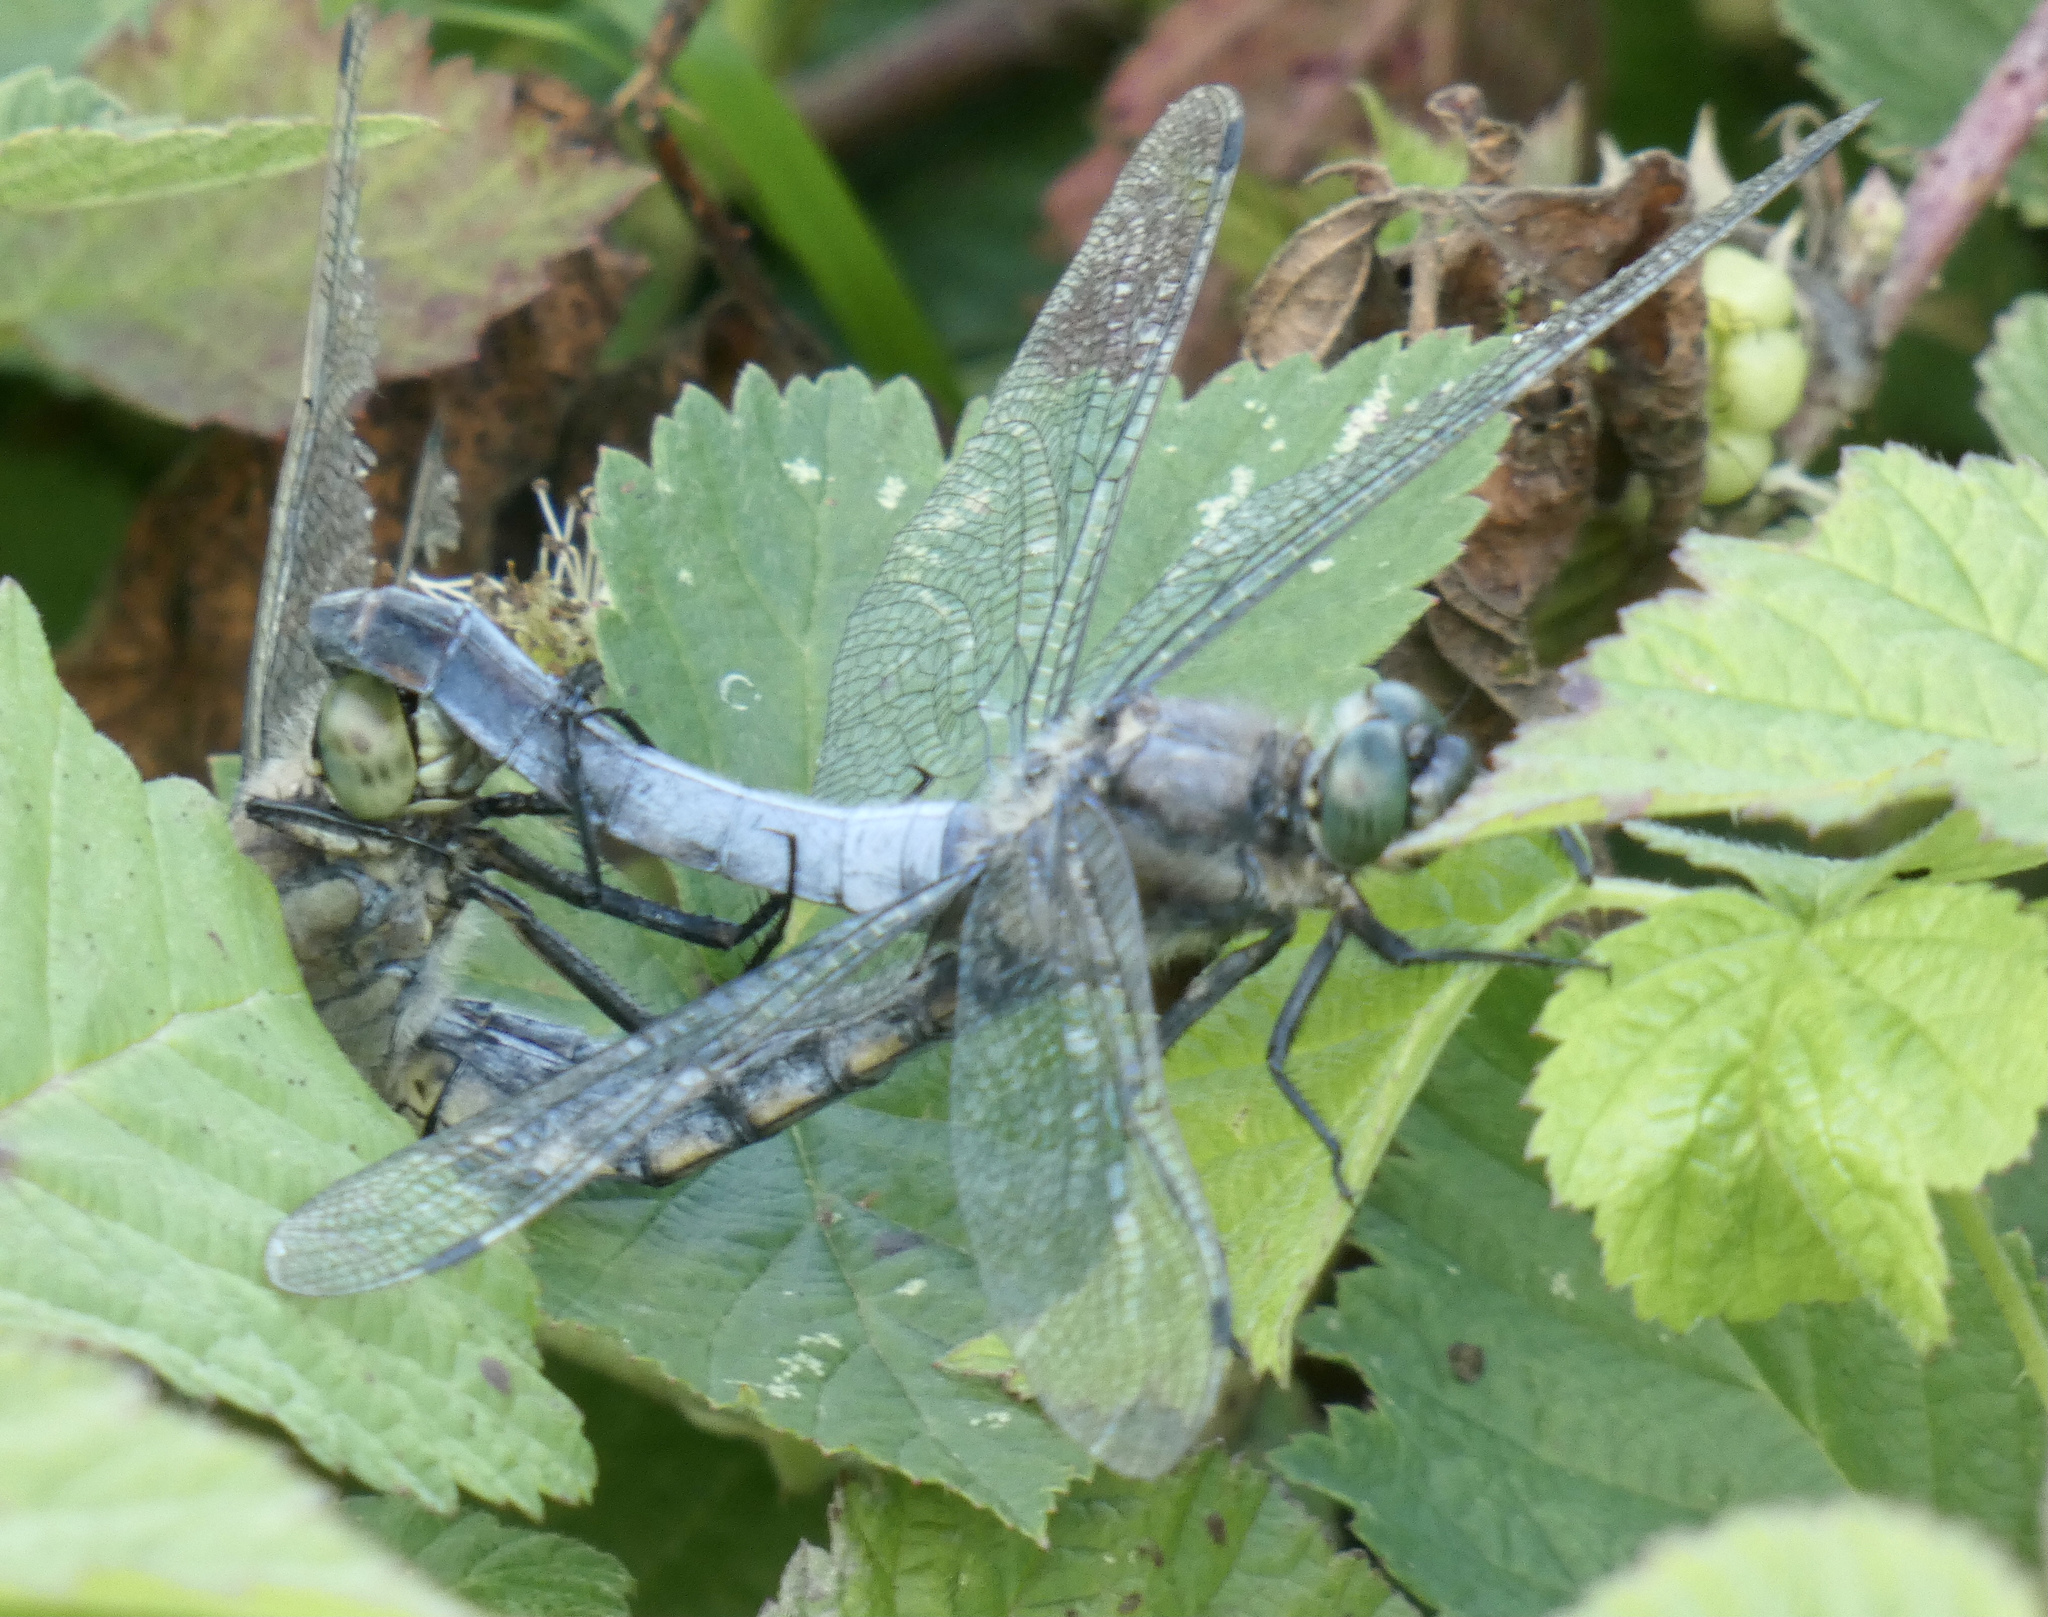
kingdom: Animalia
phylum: Arthropoda
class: Insecta
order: Odonata
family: Libellulidae
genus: Orthetrum
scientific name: Orthetrum cancellatum
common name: Black-tailed skimmer
